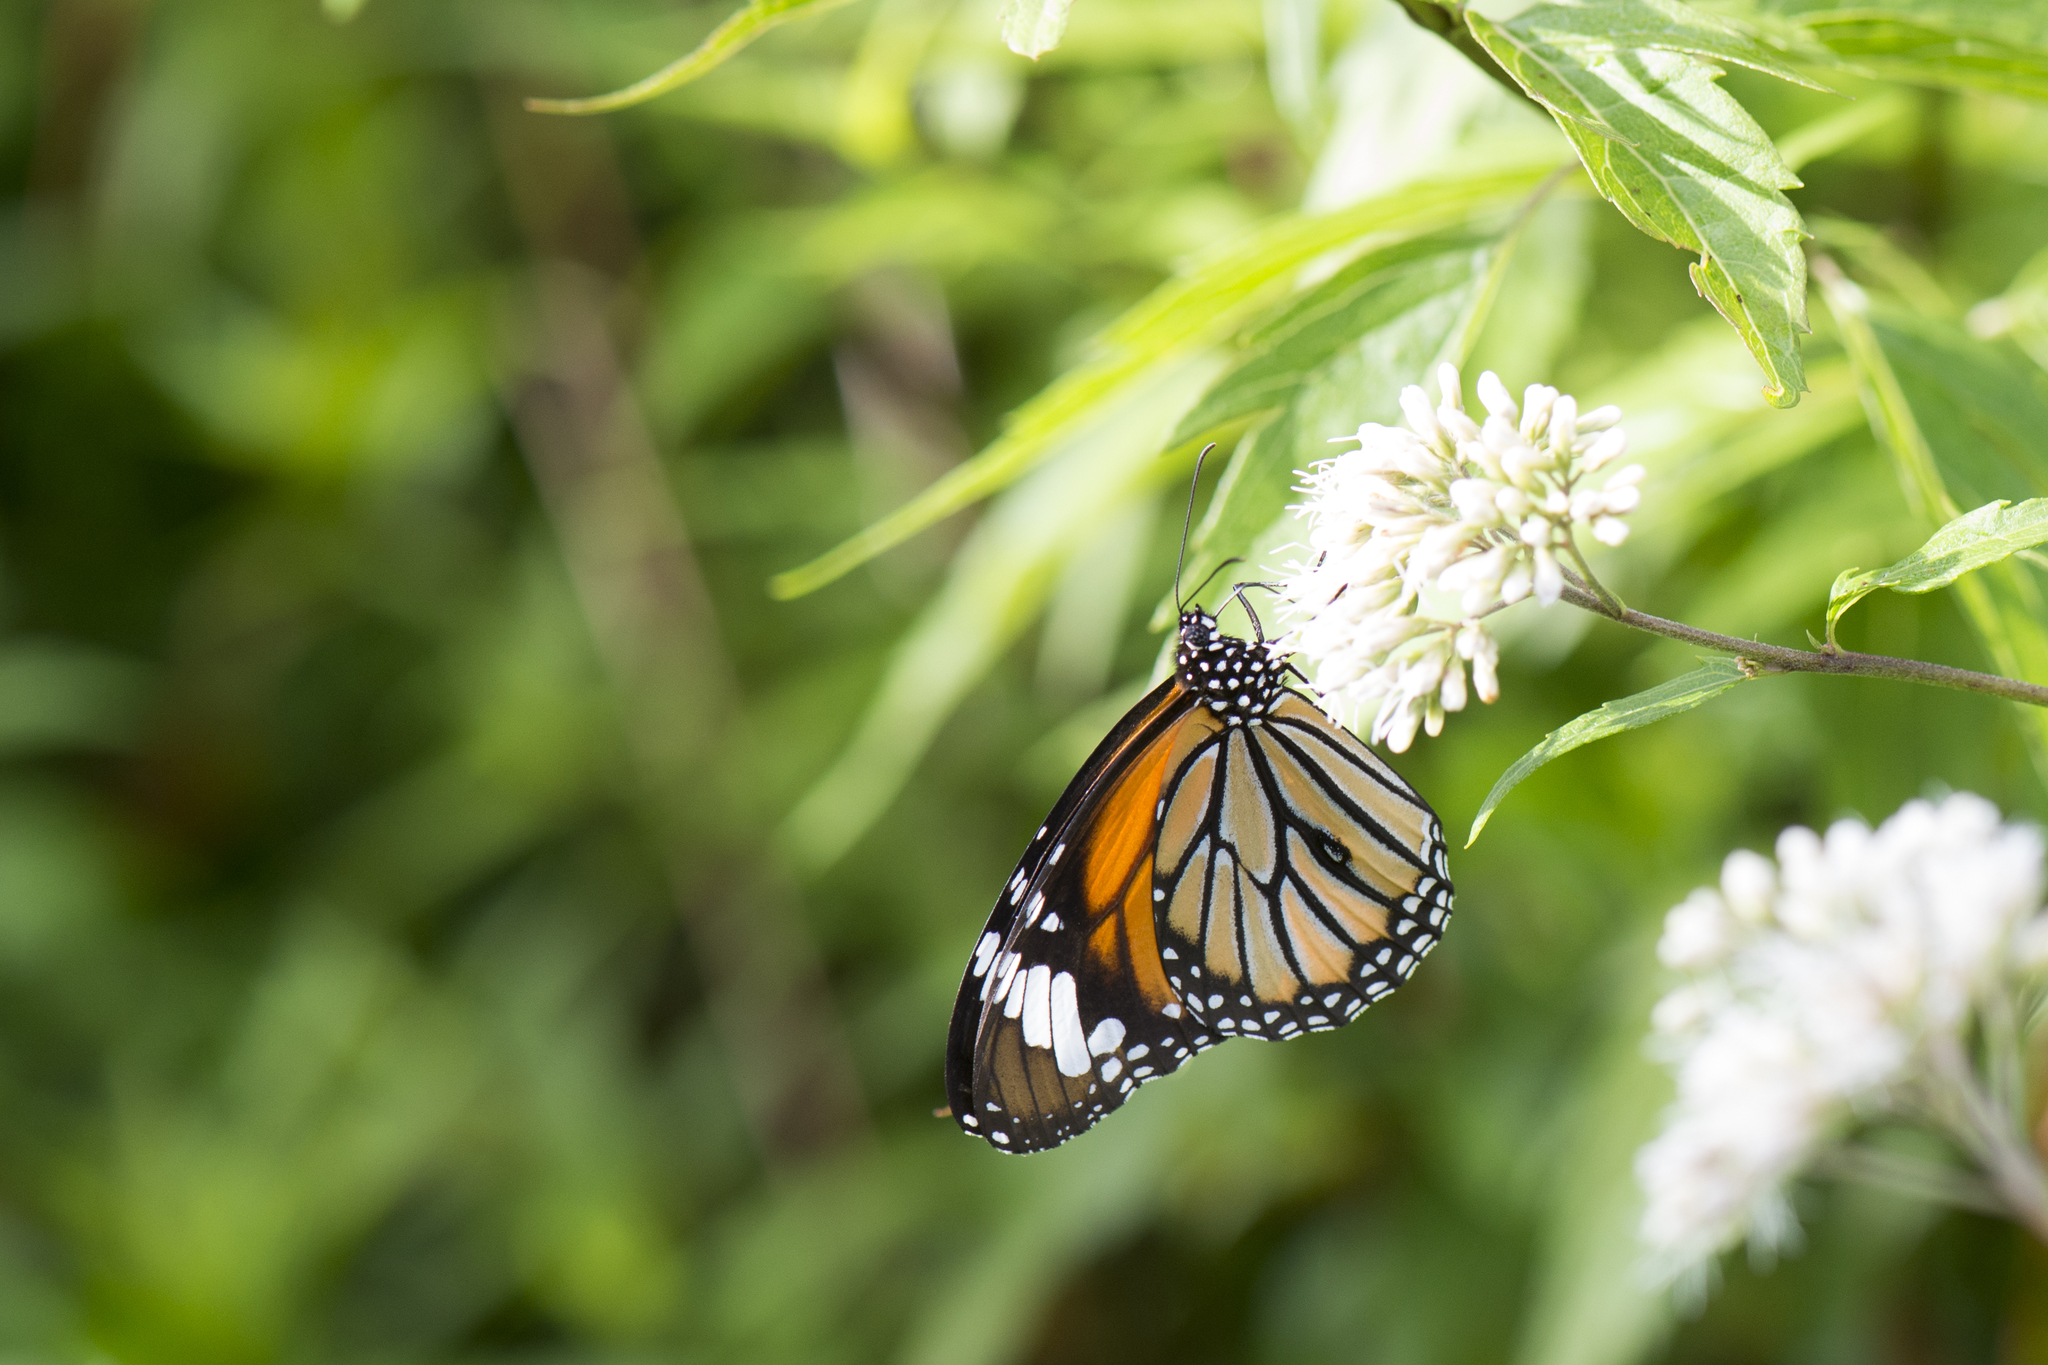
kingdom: Animalia
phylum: Arthropoda
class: Insecta
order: Lepidoptera
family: Nymphalidae
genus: Danaus
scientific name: Danaus genutia
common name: Common tiger butterfly
